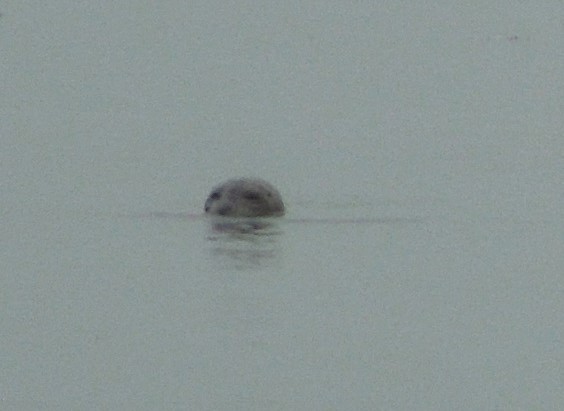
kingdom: Animalia
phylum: Chordata
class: Mammalia
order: Carnivora
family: Phocidae
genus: Phoca
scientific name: Phoca vitulina
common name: Harbor seal
